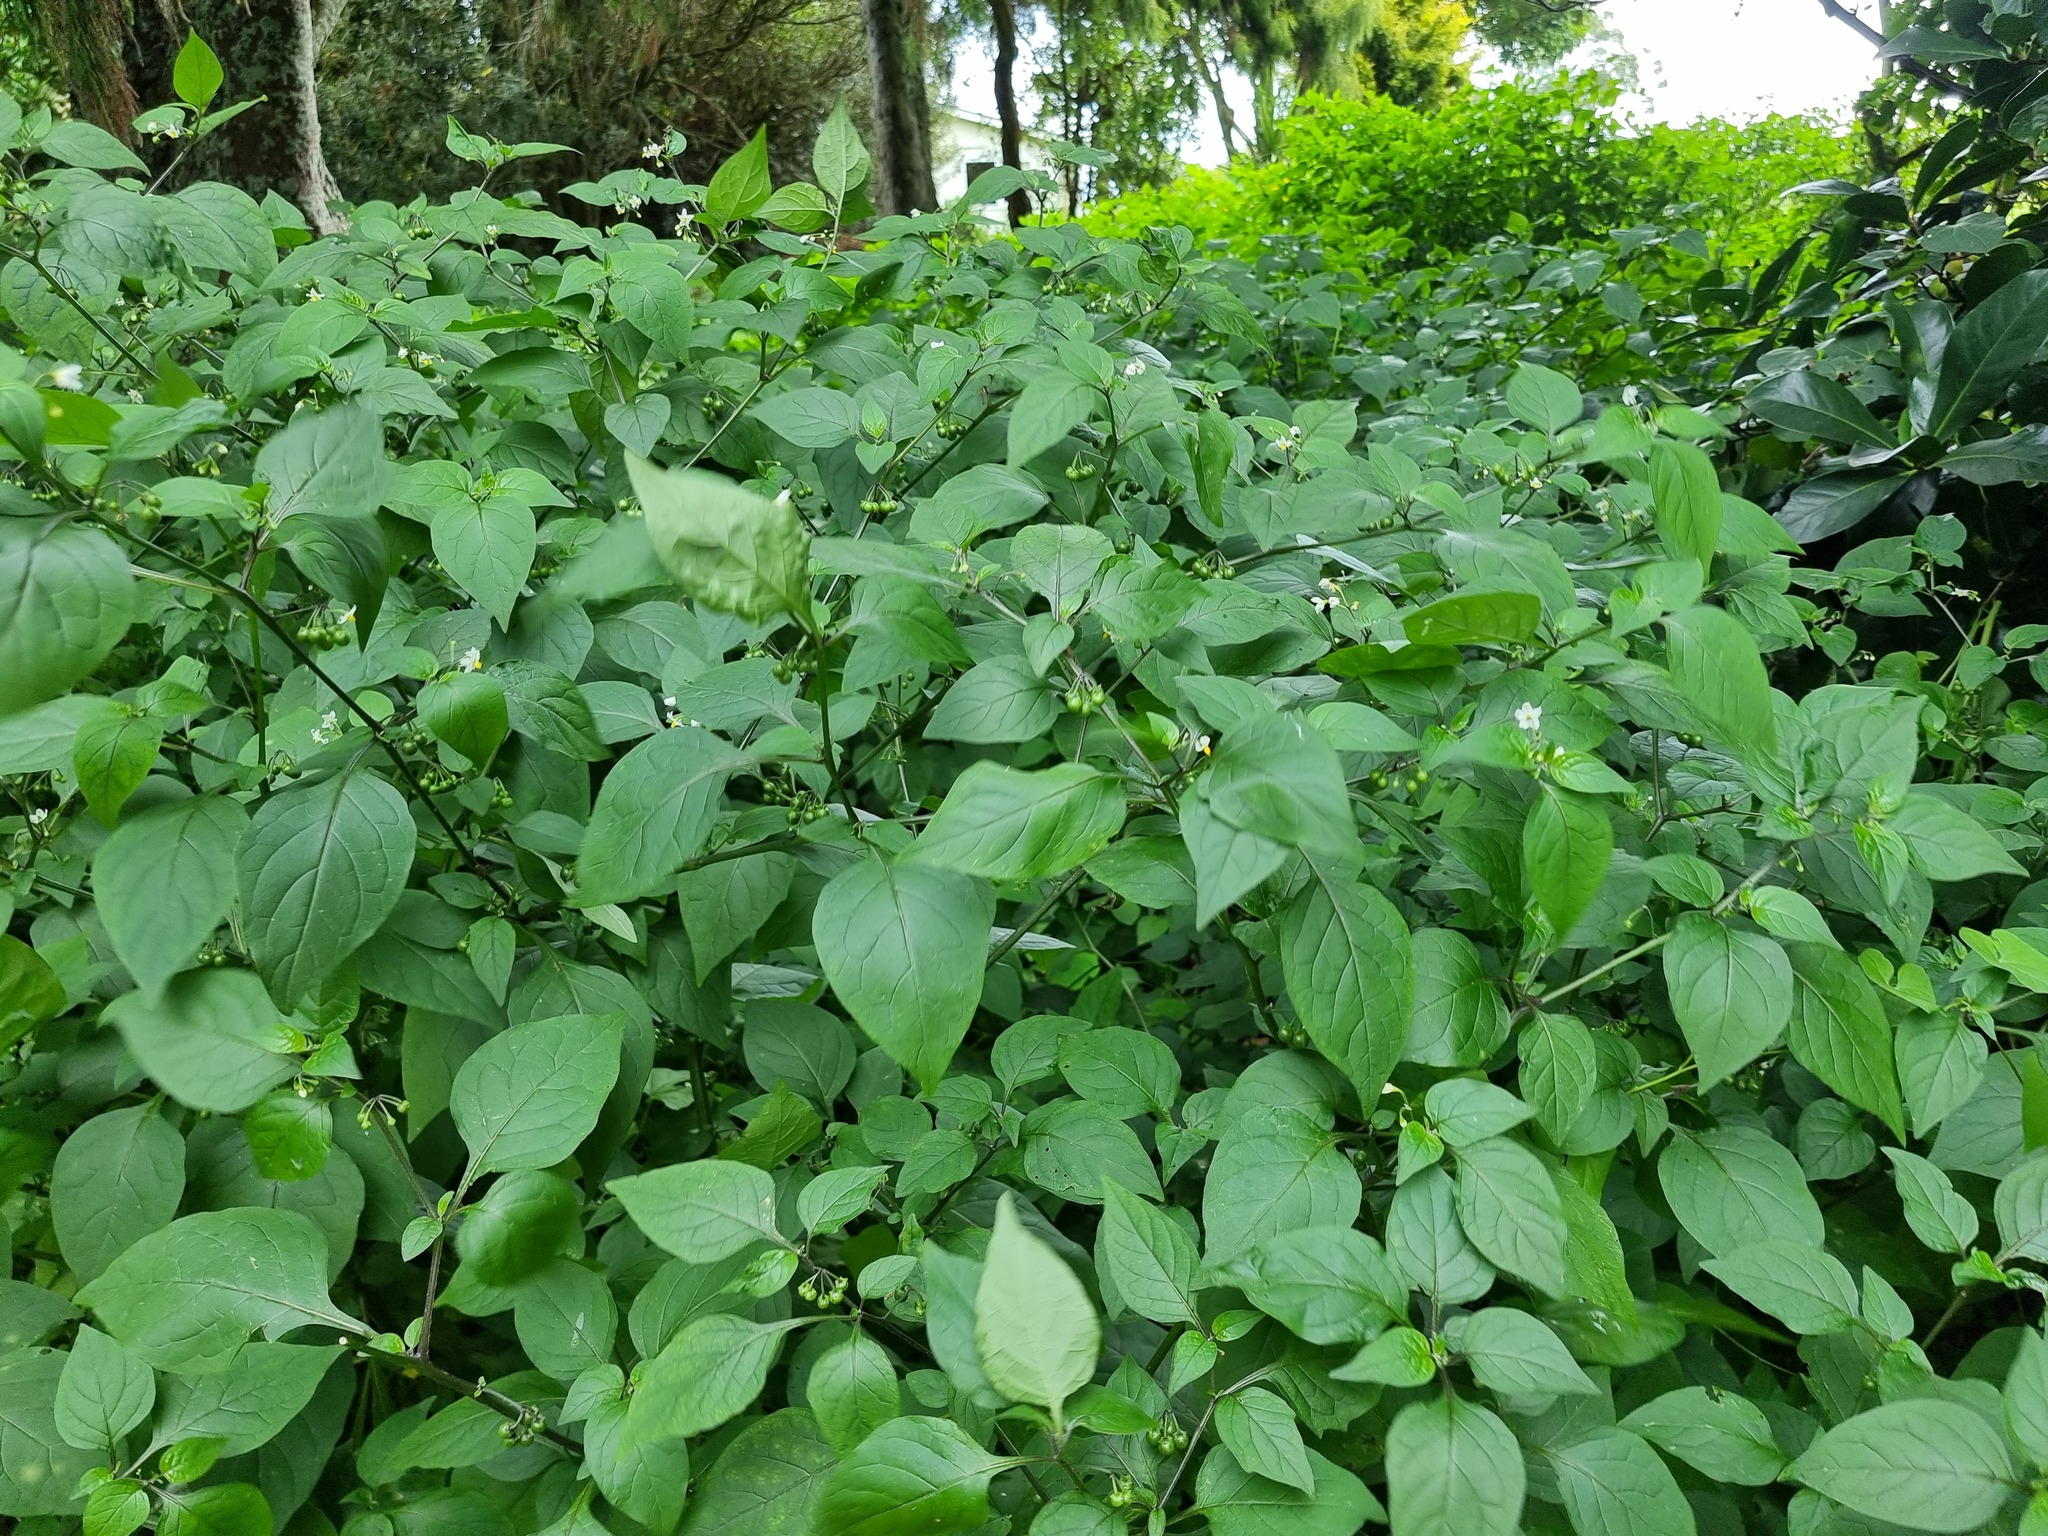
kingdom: Plantae
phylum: Tracheophyta
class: Magnoliopsida
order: Solanales
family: Solanaceae
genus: Solanum
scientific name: Solanum nigrum
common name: Black nightshade
